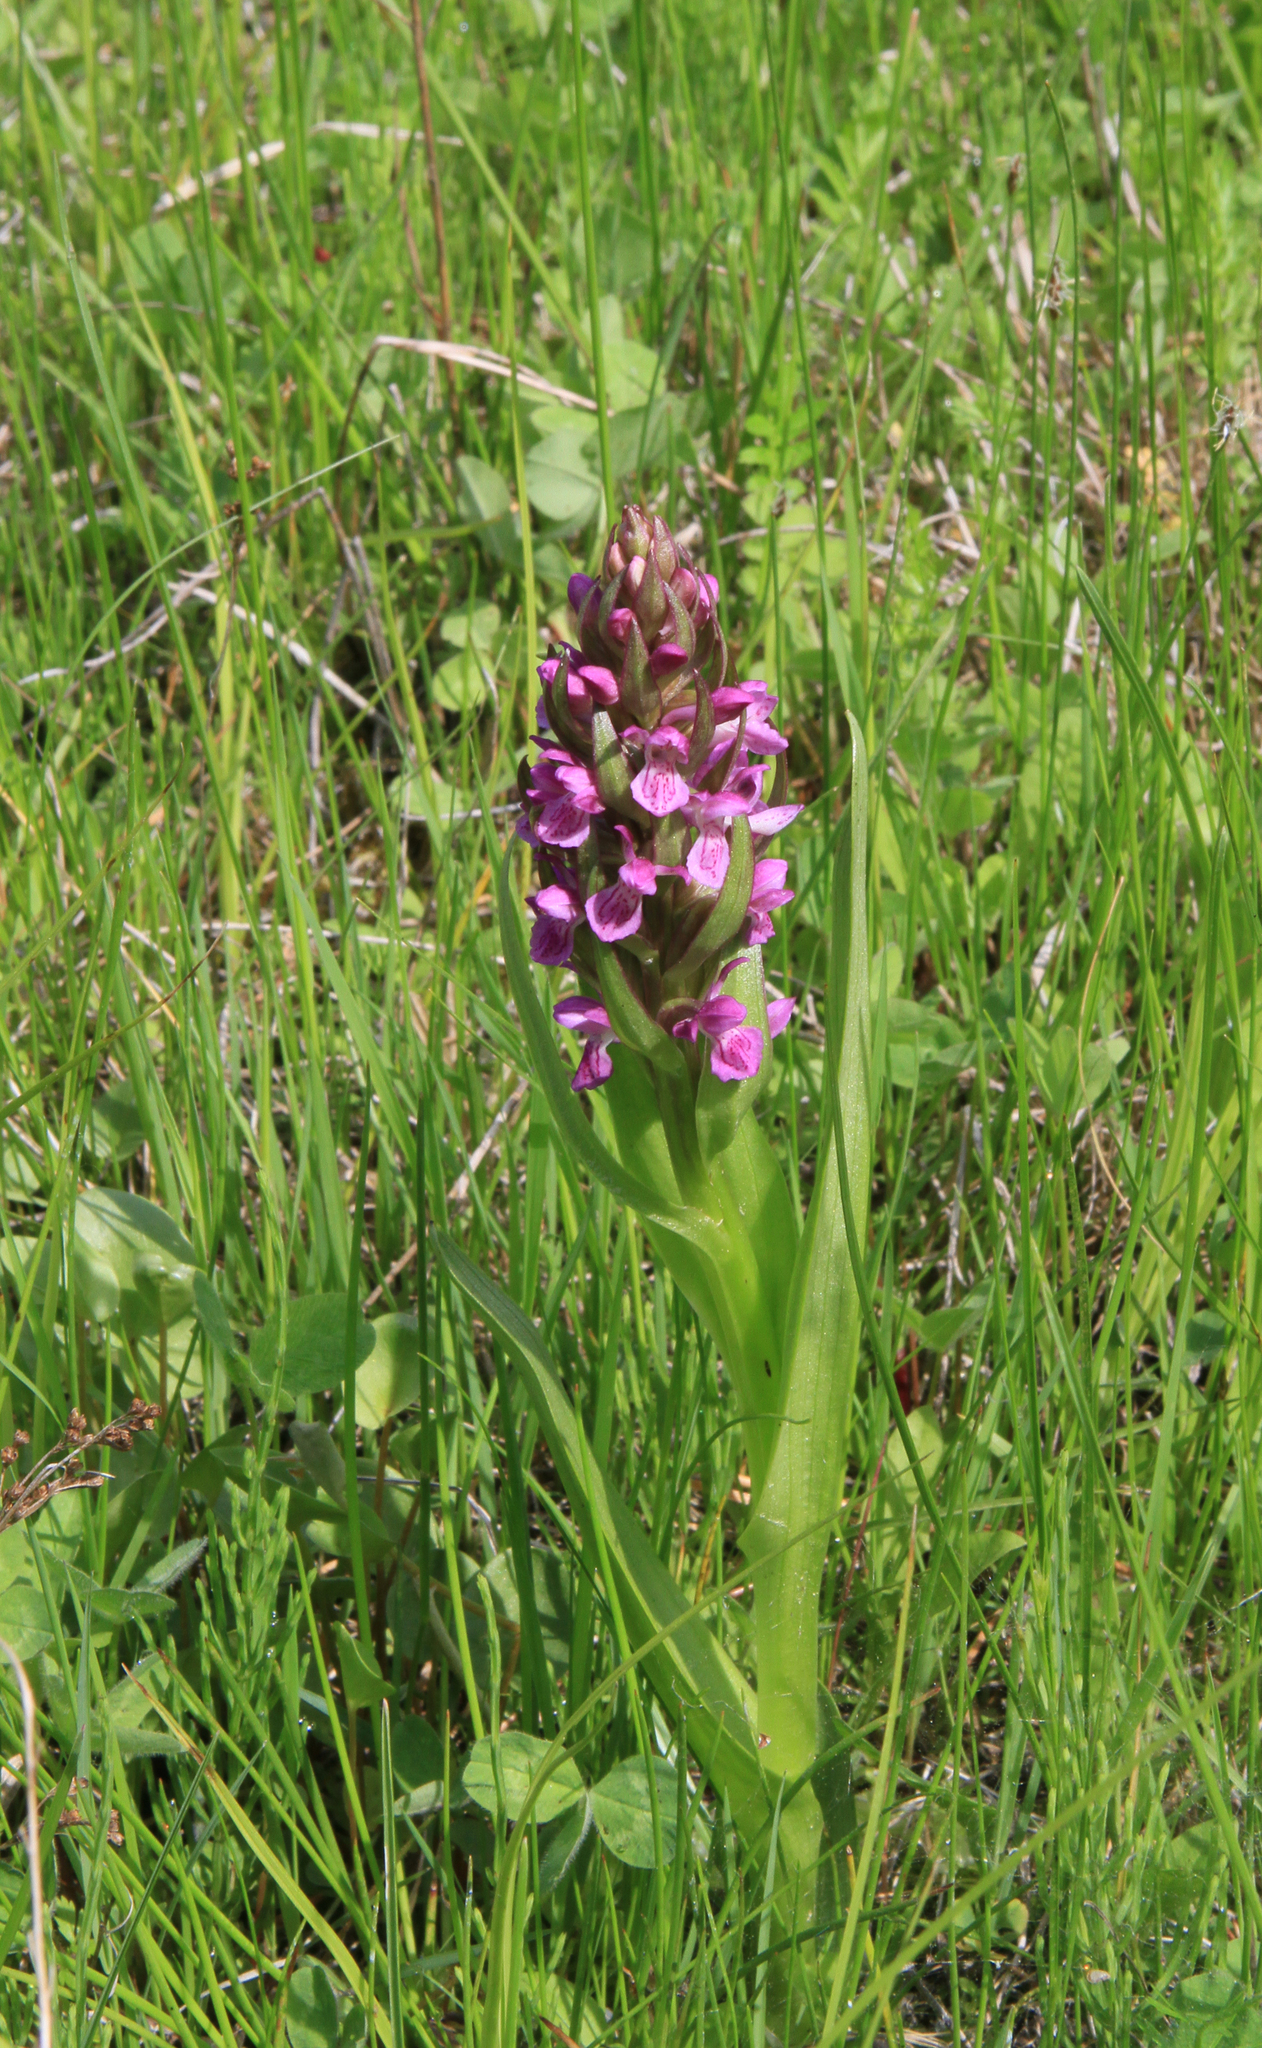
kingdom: Plantae
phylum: Tracheophyta
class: Liliopsida
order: Asparagales
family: Orchidaceae
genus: Dactylorhiza
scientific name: Dactylorhiza incarnata
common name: Early marsh-orchid
